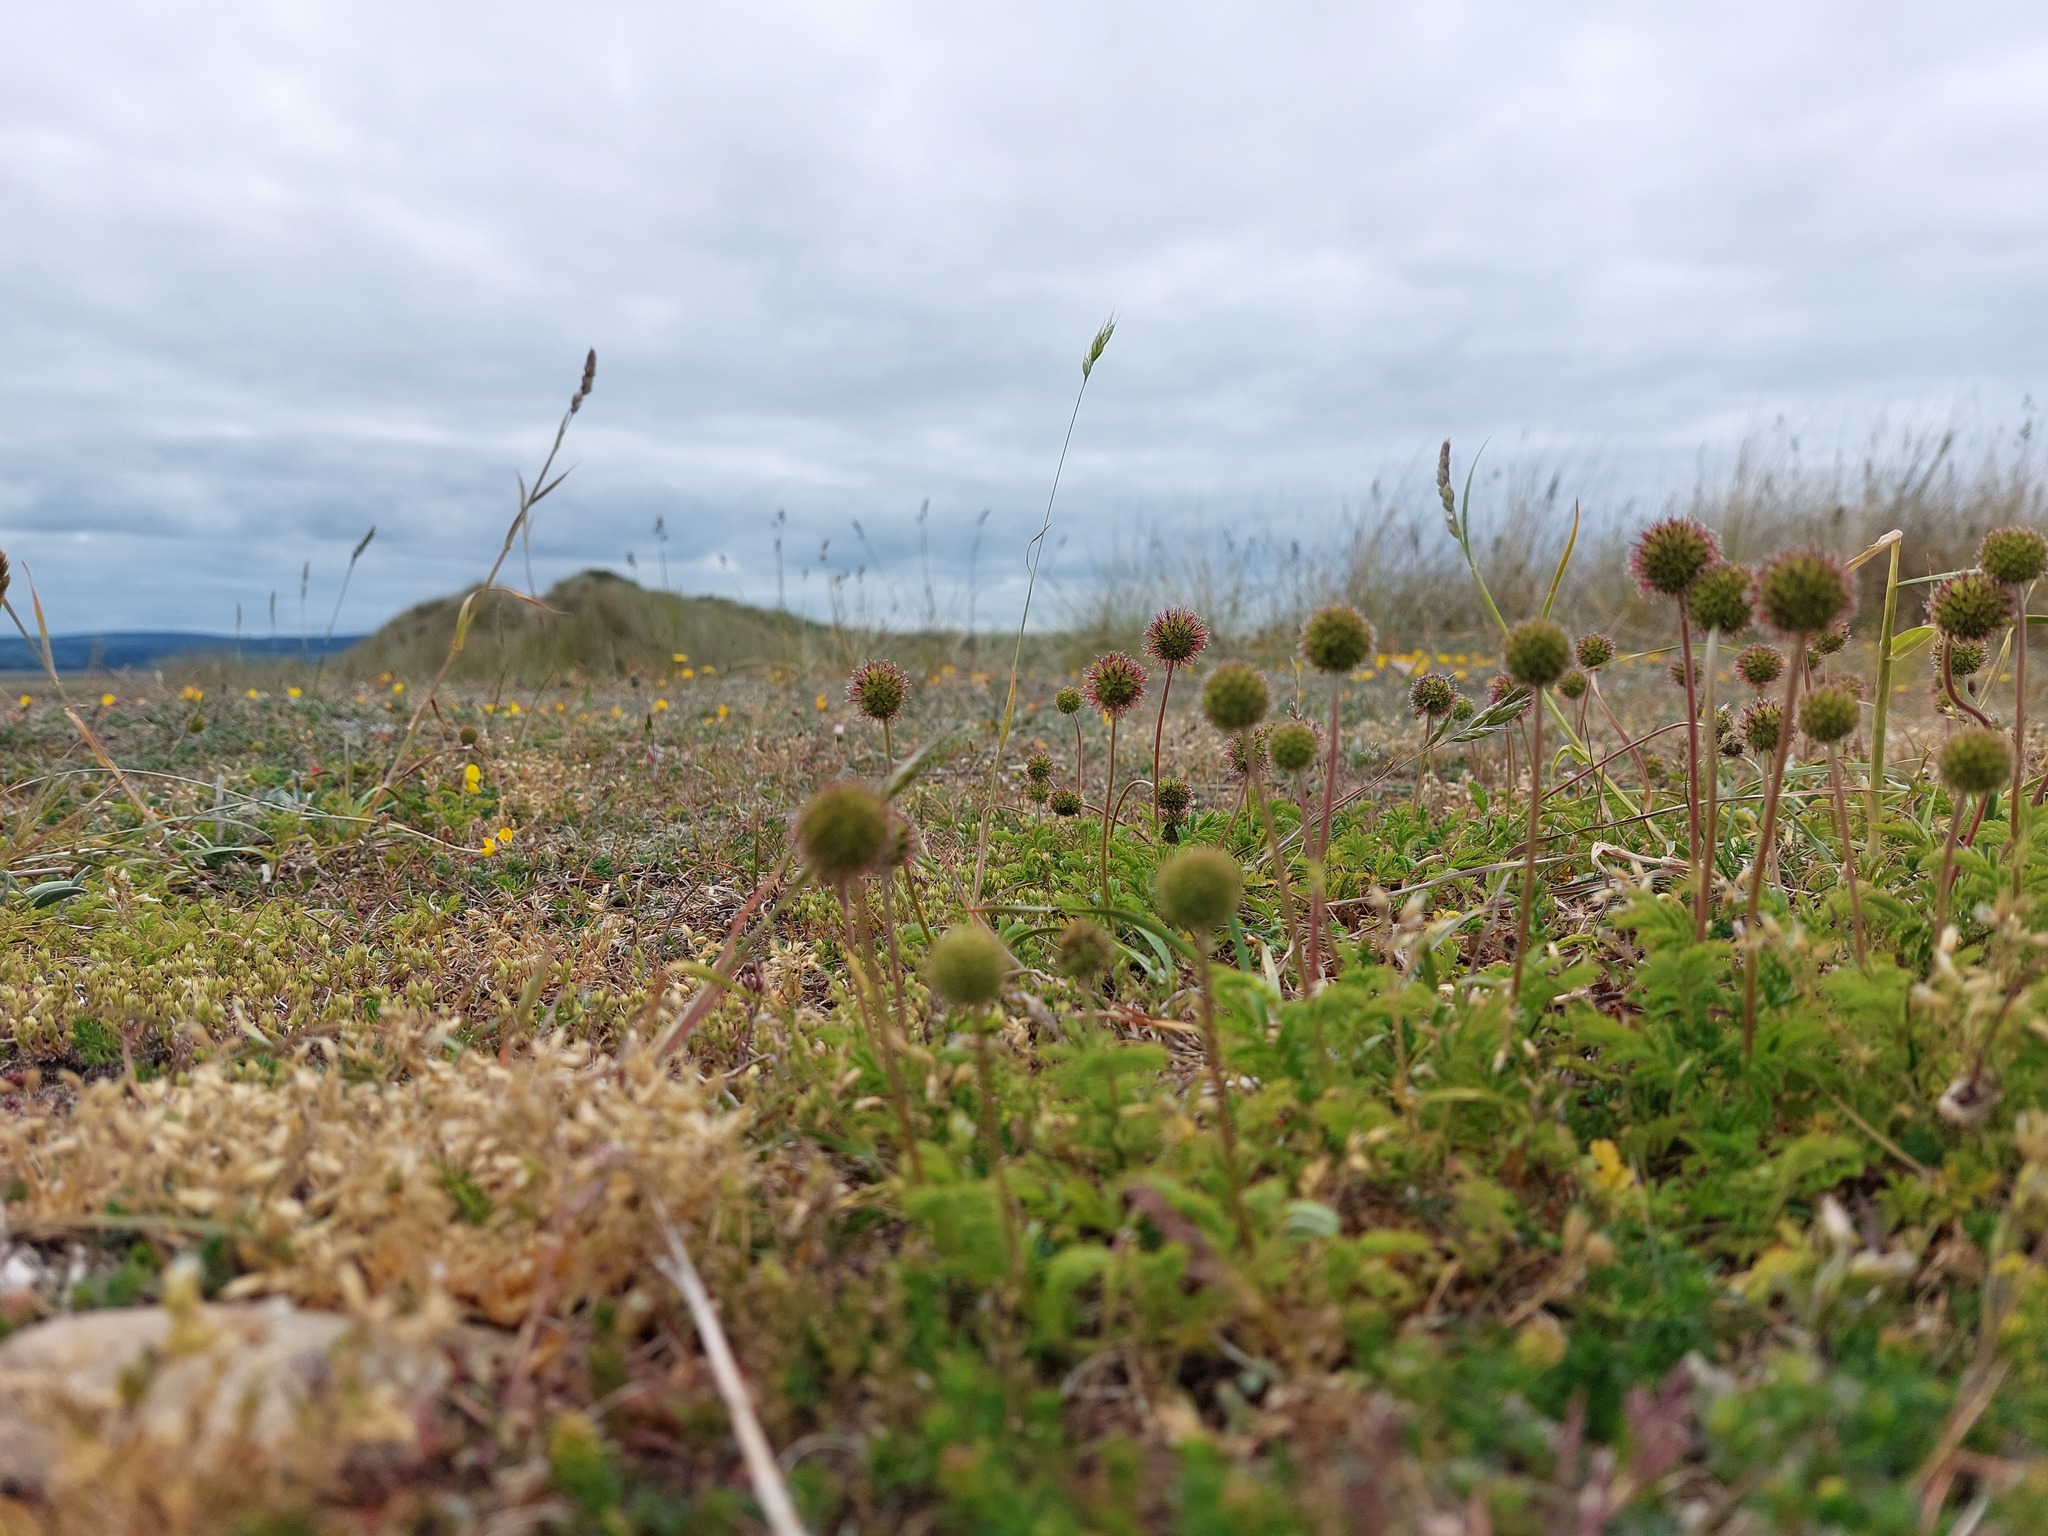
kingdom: Plantae
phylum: Tracheophyta
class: Magnoliopsida
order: Rosales
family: Rosaceae
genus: Acaena
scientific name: Acaena novae-zelandiae
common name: Pirri-pirri-bur
